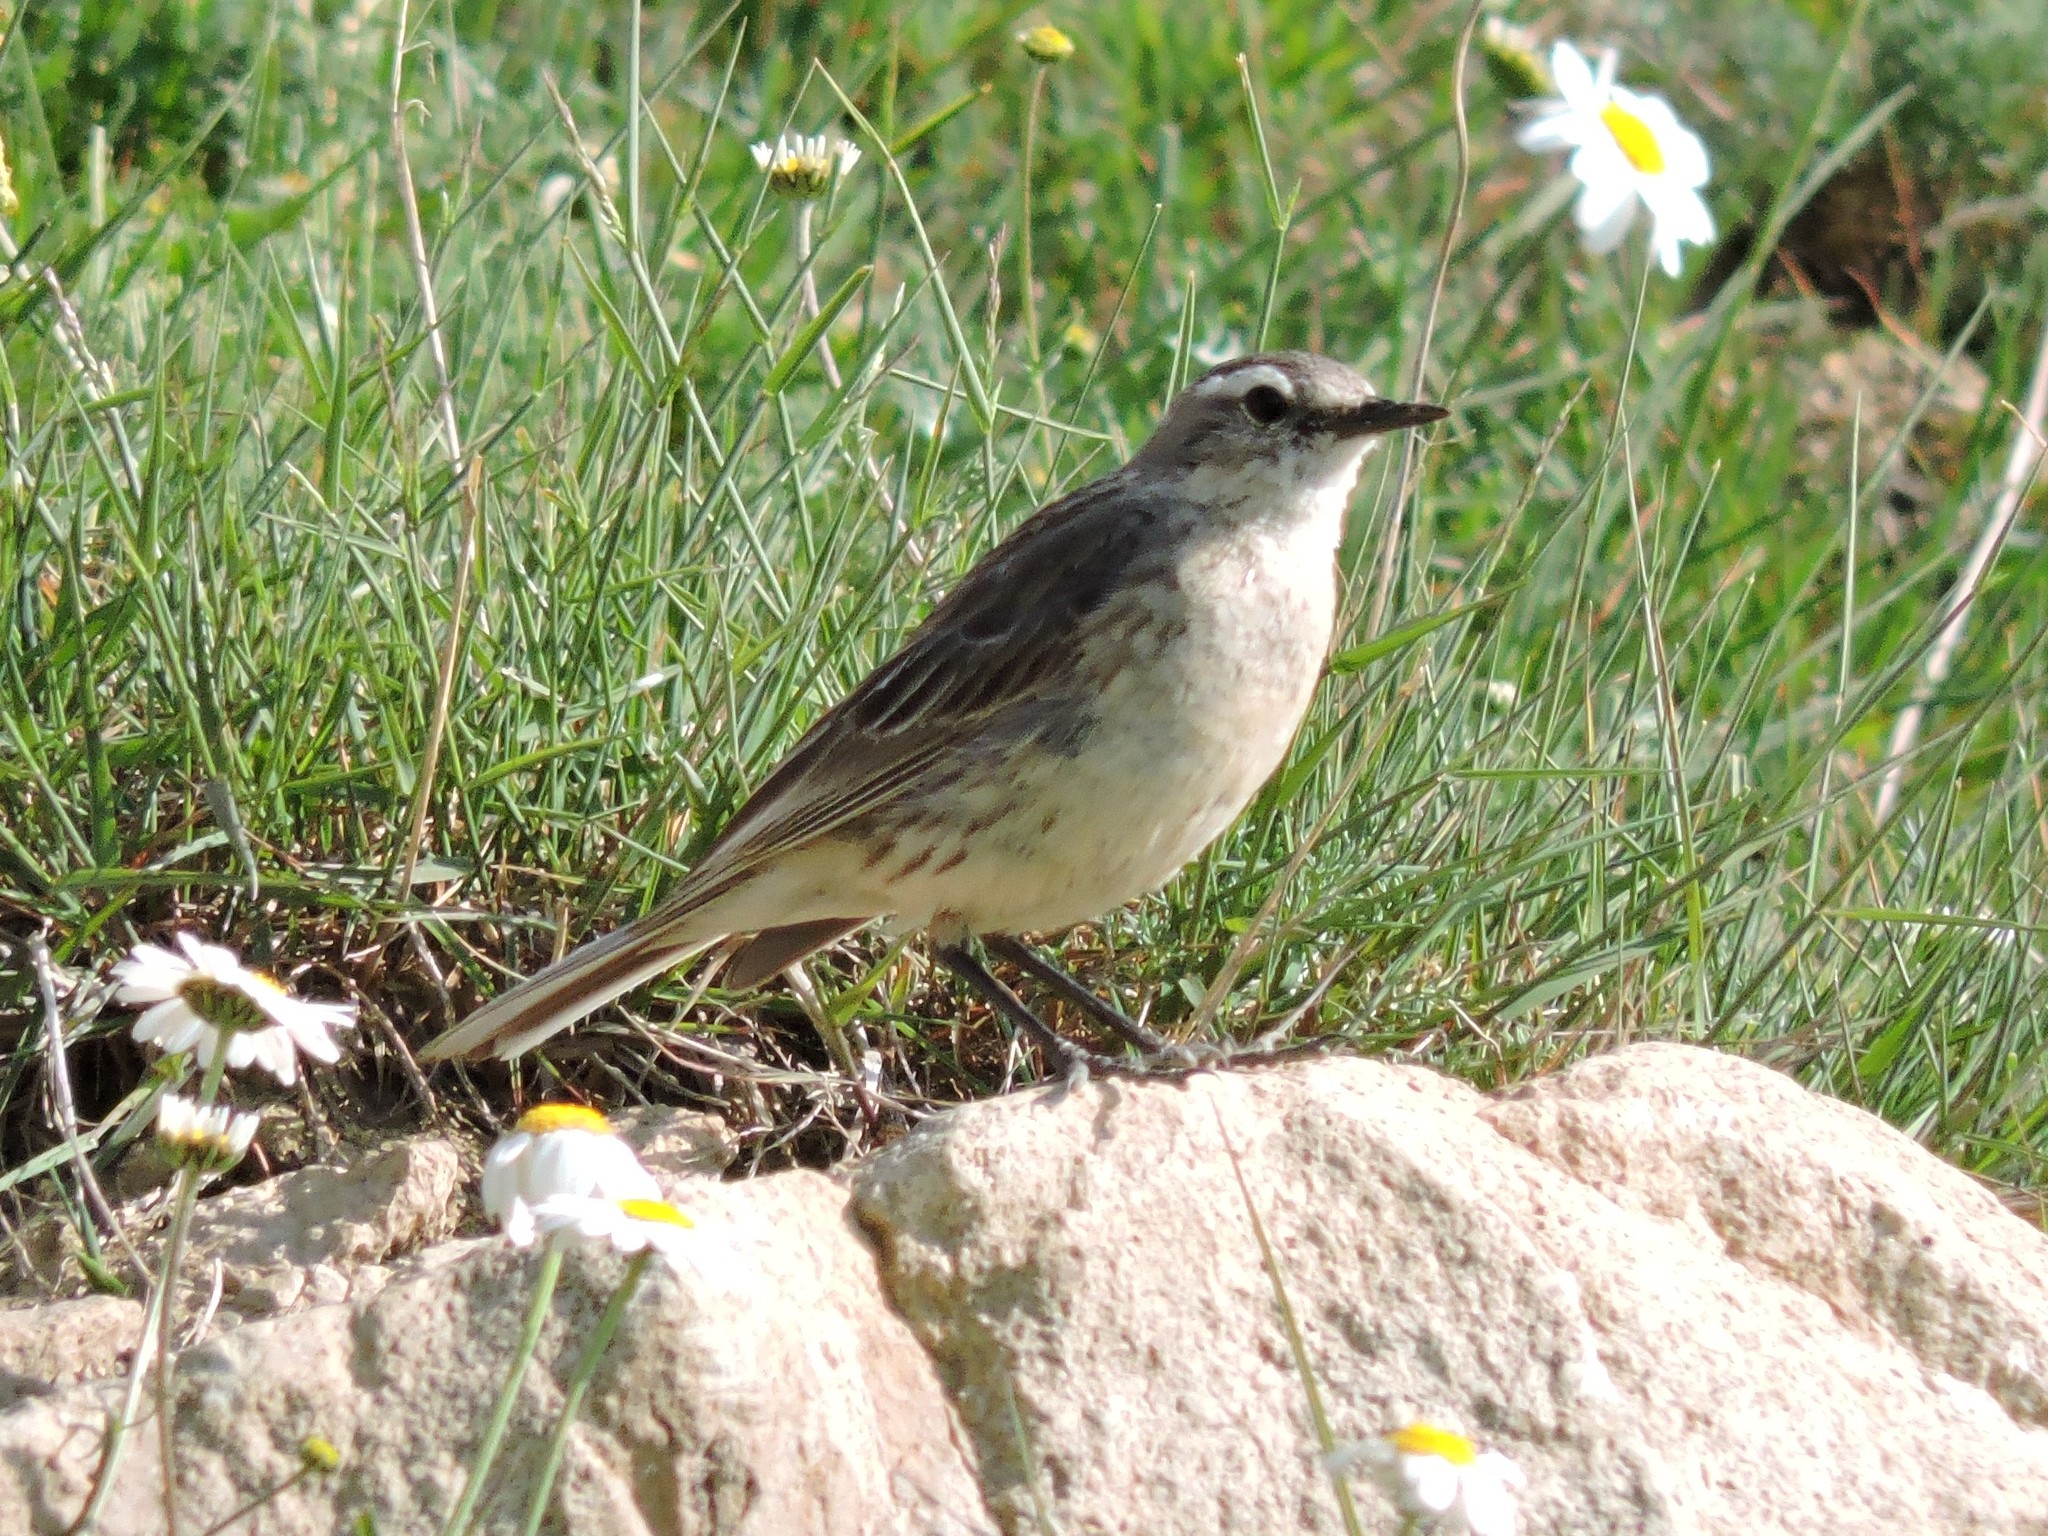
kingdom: Animalia
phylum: Chordata
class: Aves
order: Passeriformes
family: Motacillidae
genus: Anthus
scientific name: Anthus spinoletta
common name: Water pipit
